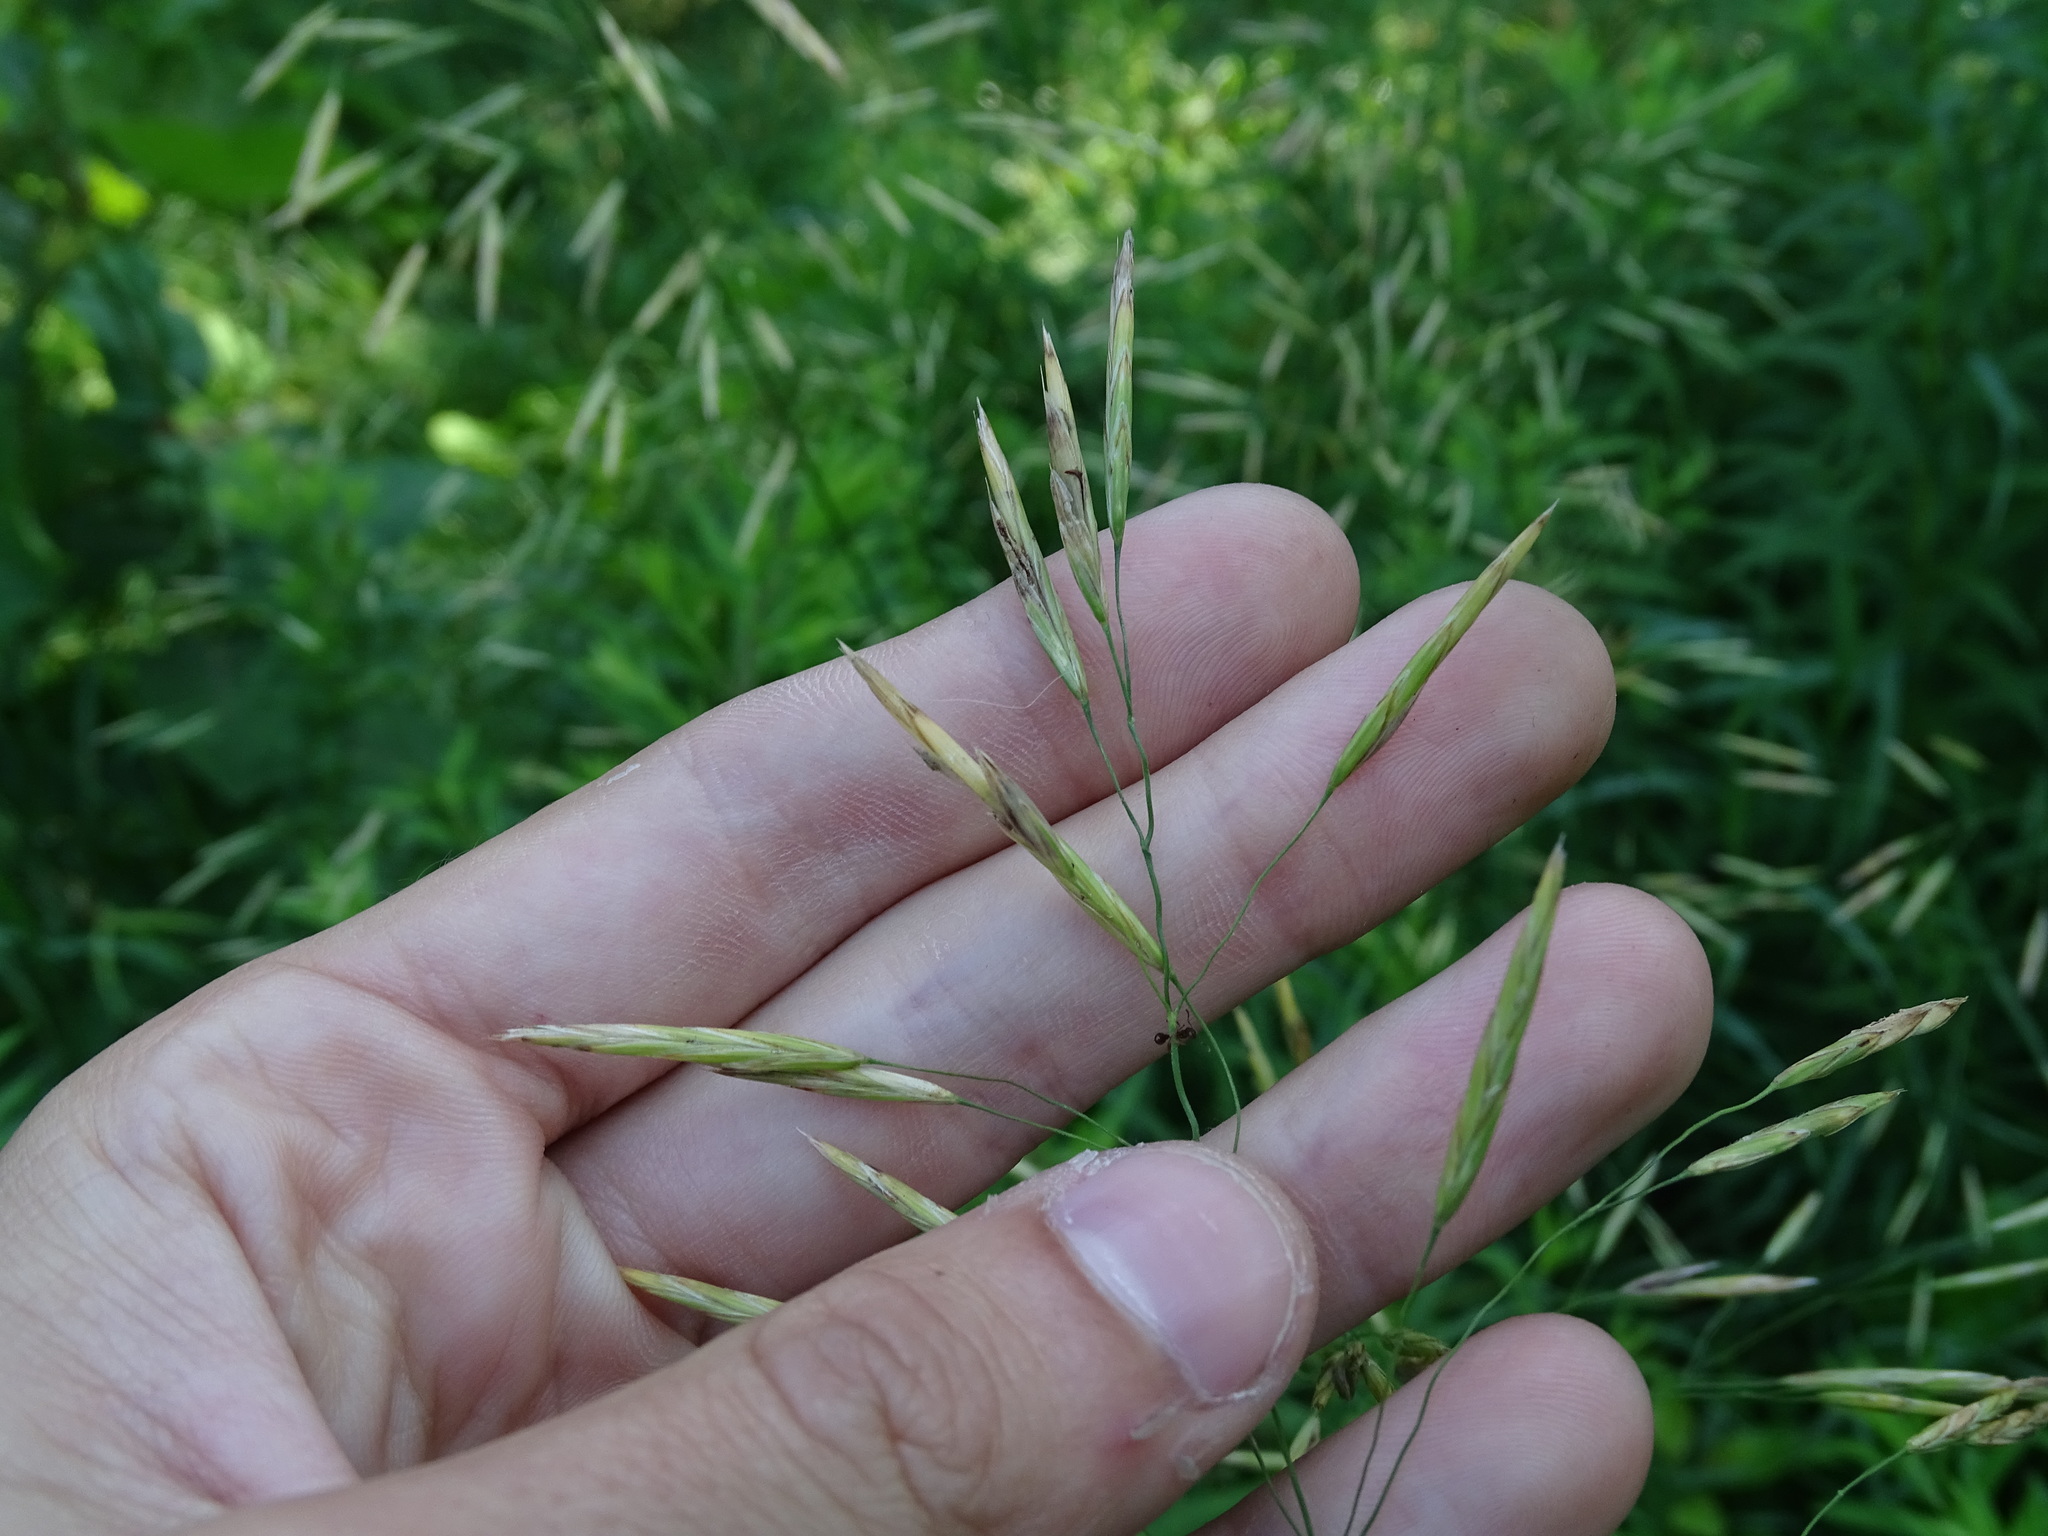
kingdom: Plantae
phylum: Tracheophyta
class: Liliopsida
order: Poales
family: Poaceae
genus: Bromus
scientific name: Bromus inermis
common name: Smooth brome
